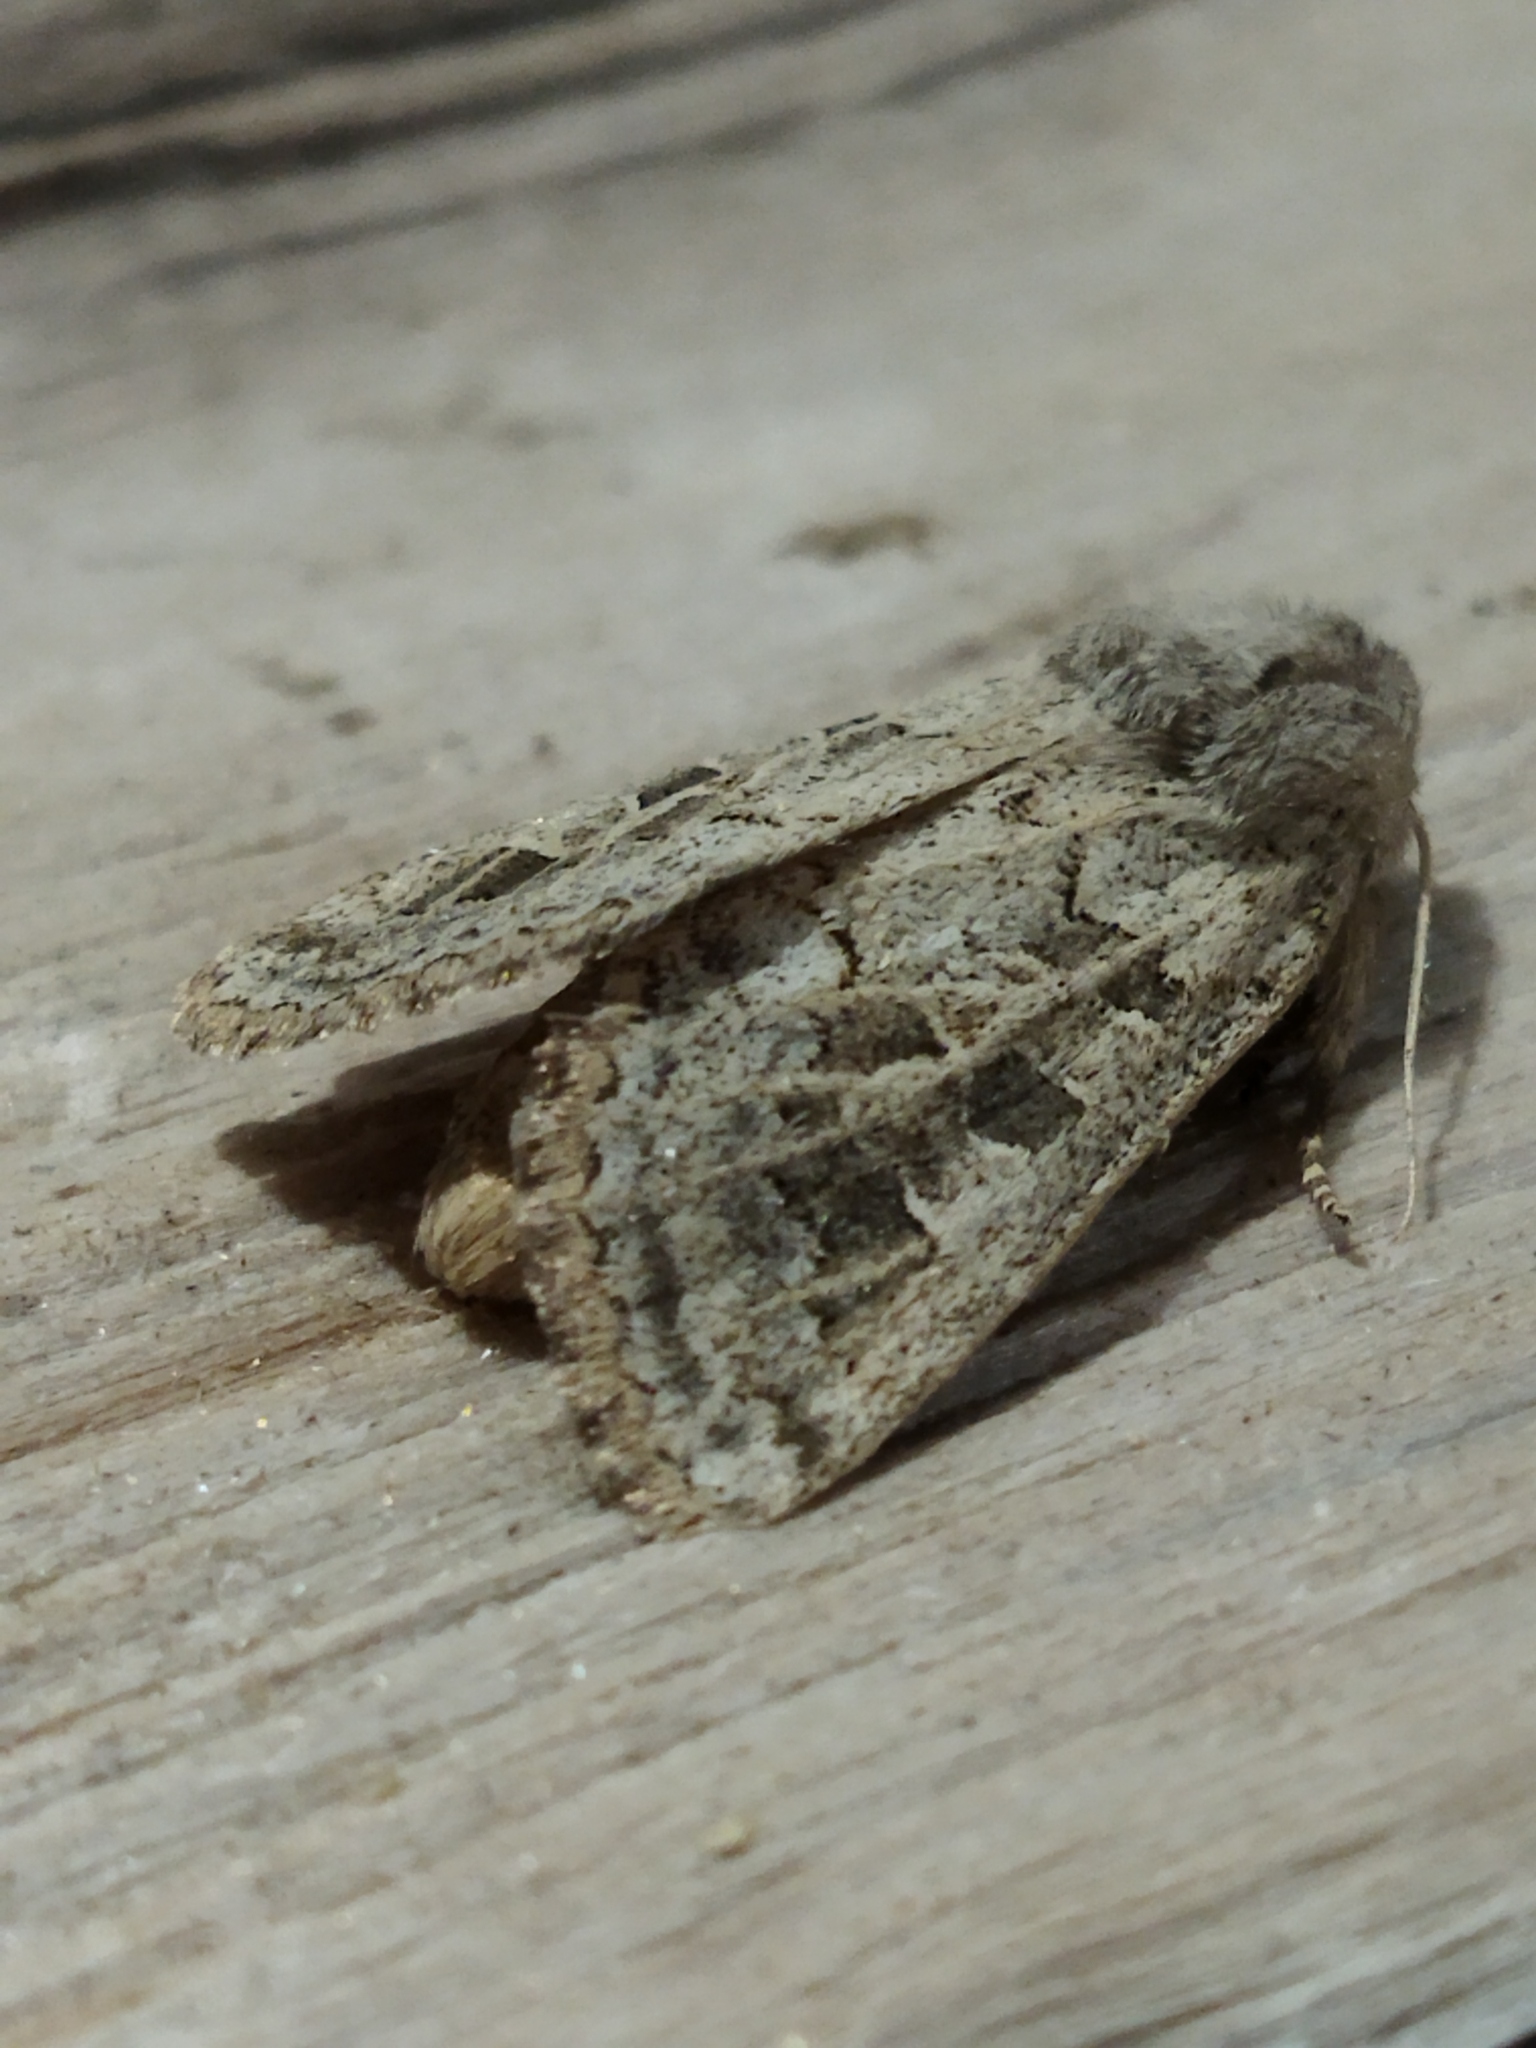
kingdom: Animalia
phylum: Arthropoda
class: Insecta
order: Lepidoptera
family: Noctuidae
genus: Episema
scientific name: Episema lederi
